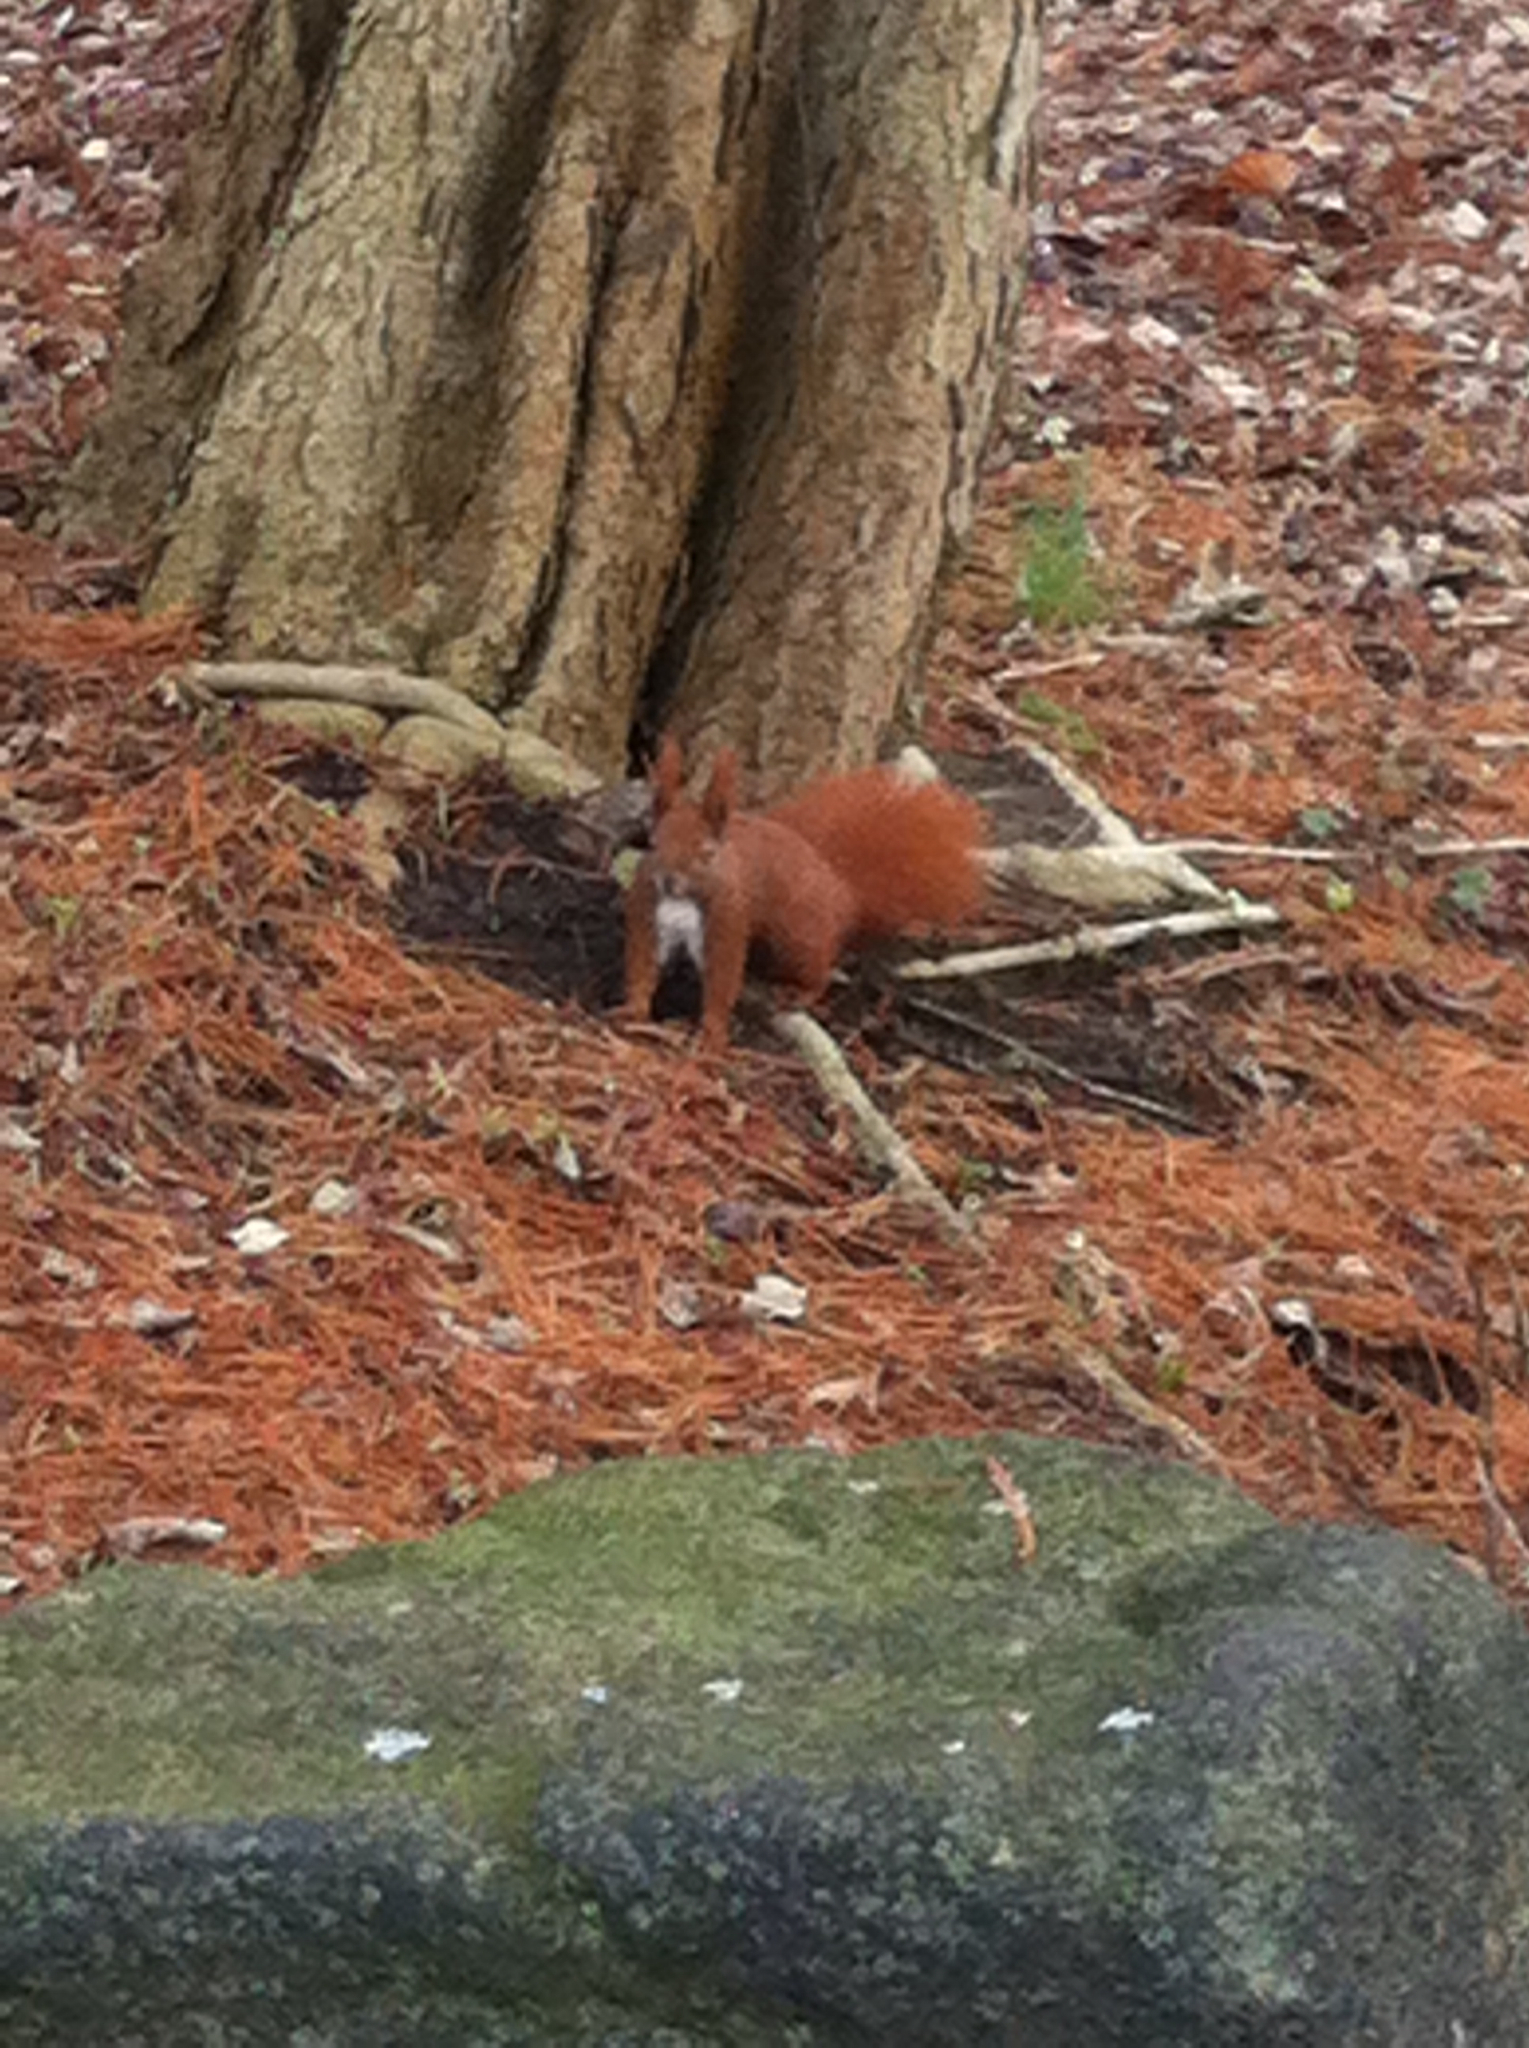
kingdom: Animalia
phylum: Chordata
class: Mammalia
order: Rodentia
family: Sciuridae
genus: Sciurus
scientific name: Sciurus vulgaris
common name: Eurasian red squirrel
